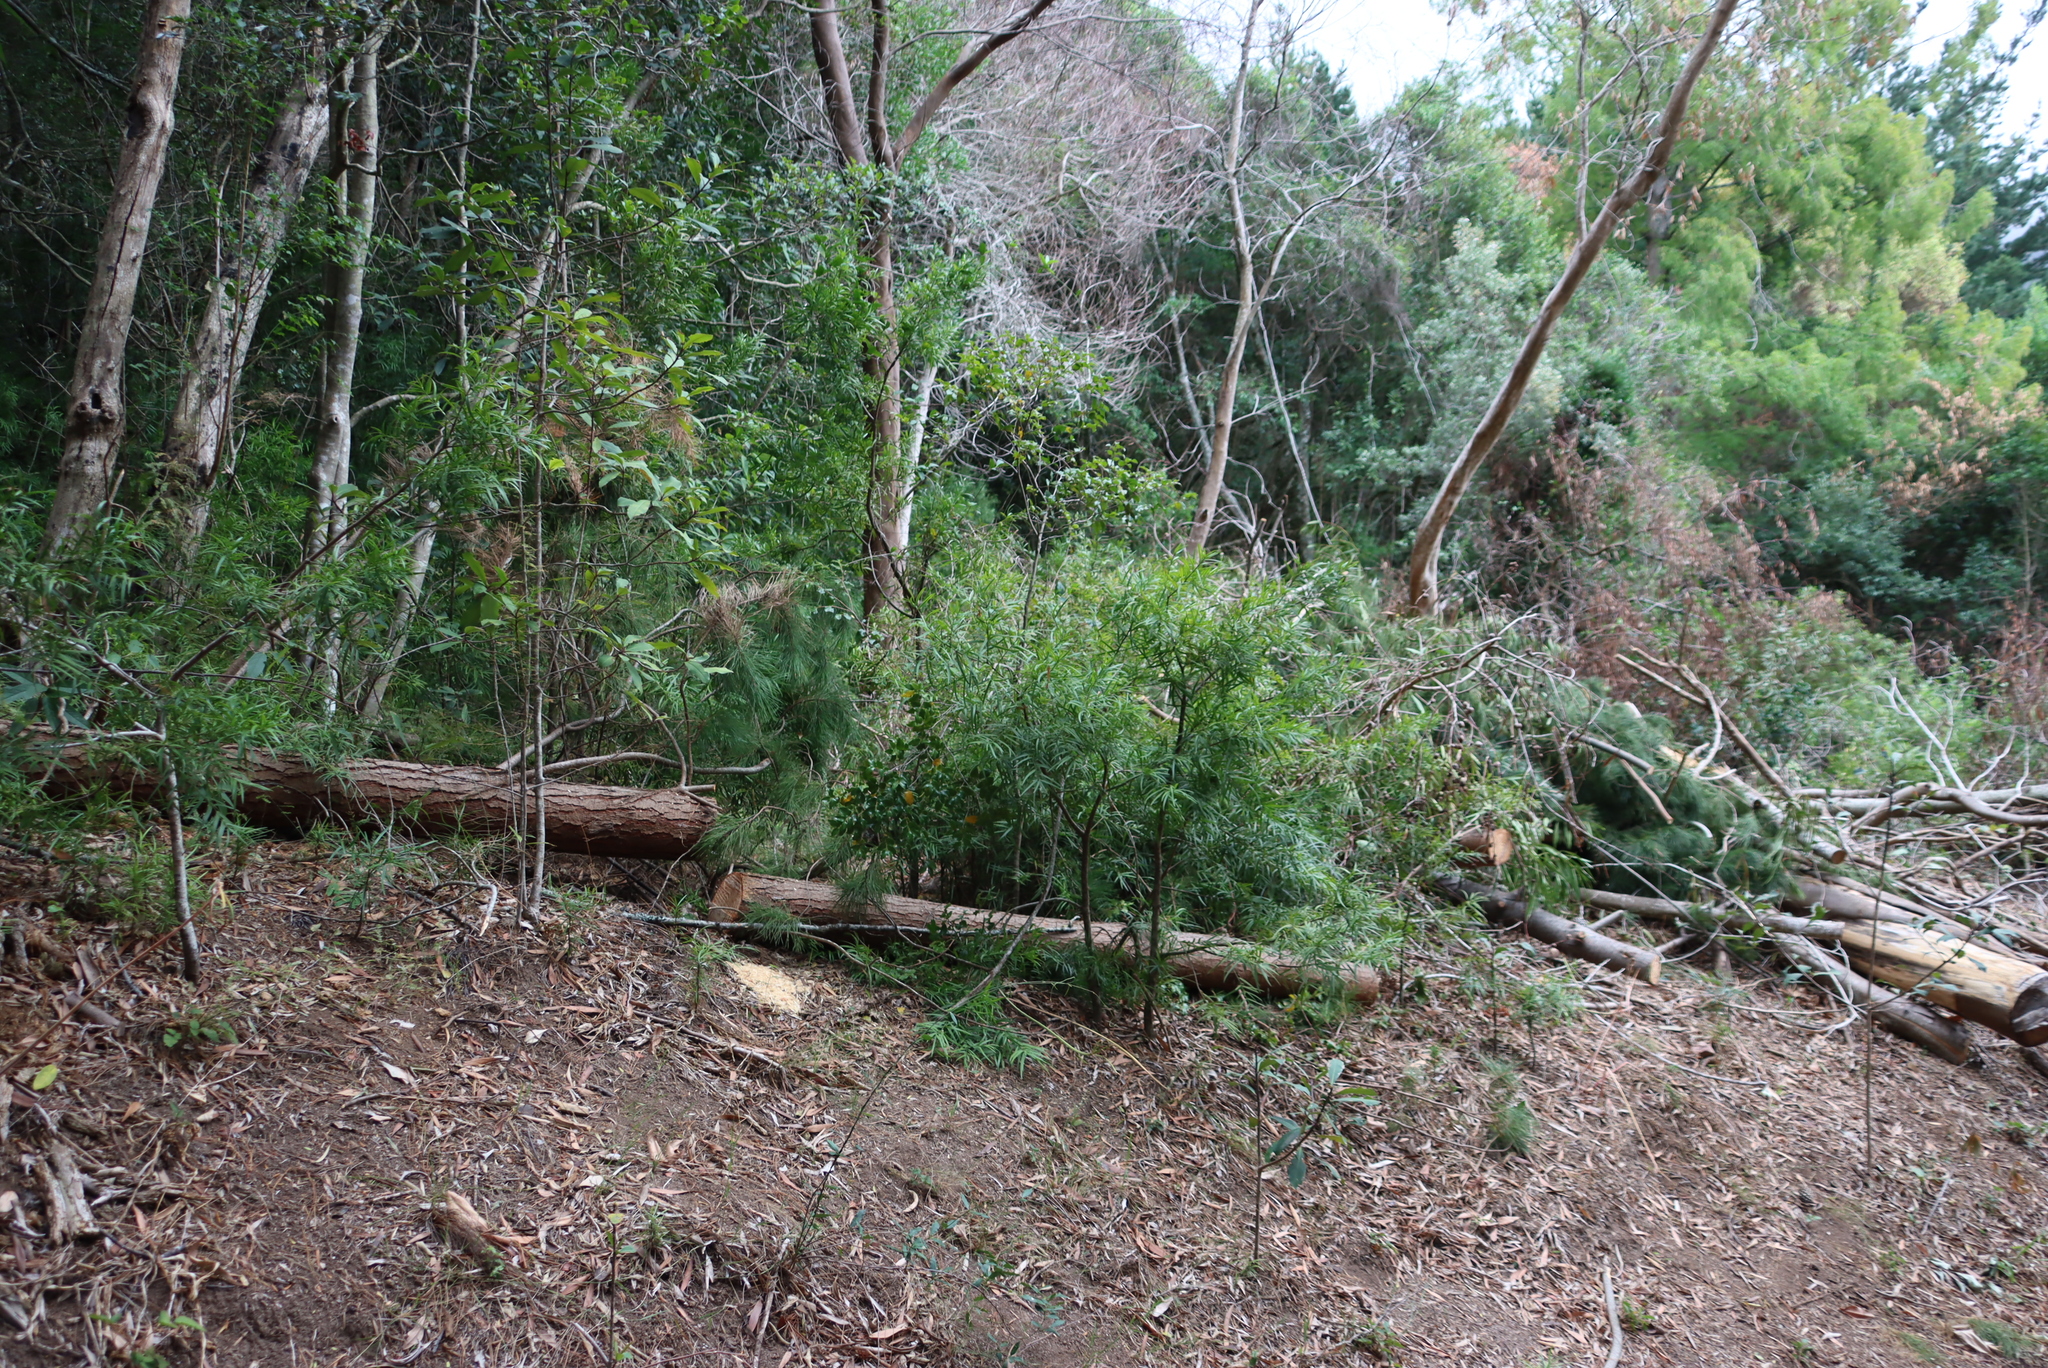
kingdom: Plantae
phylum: Tracheophyta
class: Pinopsida
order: Pinales
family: Podocarpaceae
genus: Afrocarpus
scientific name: Afrocarpus falcatus
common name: Bastard yellowwood
